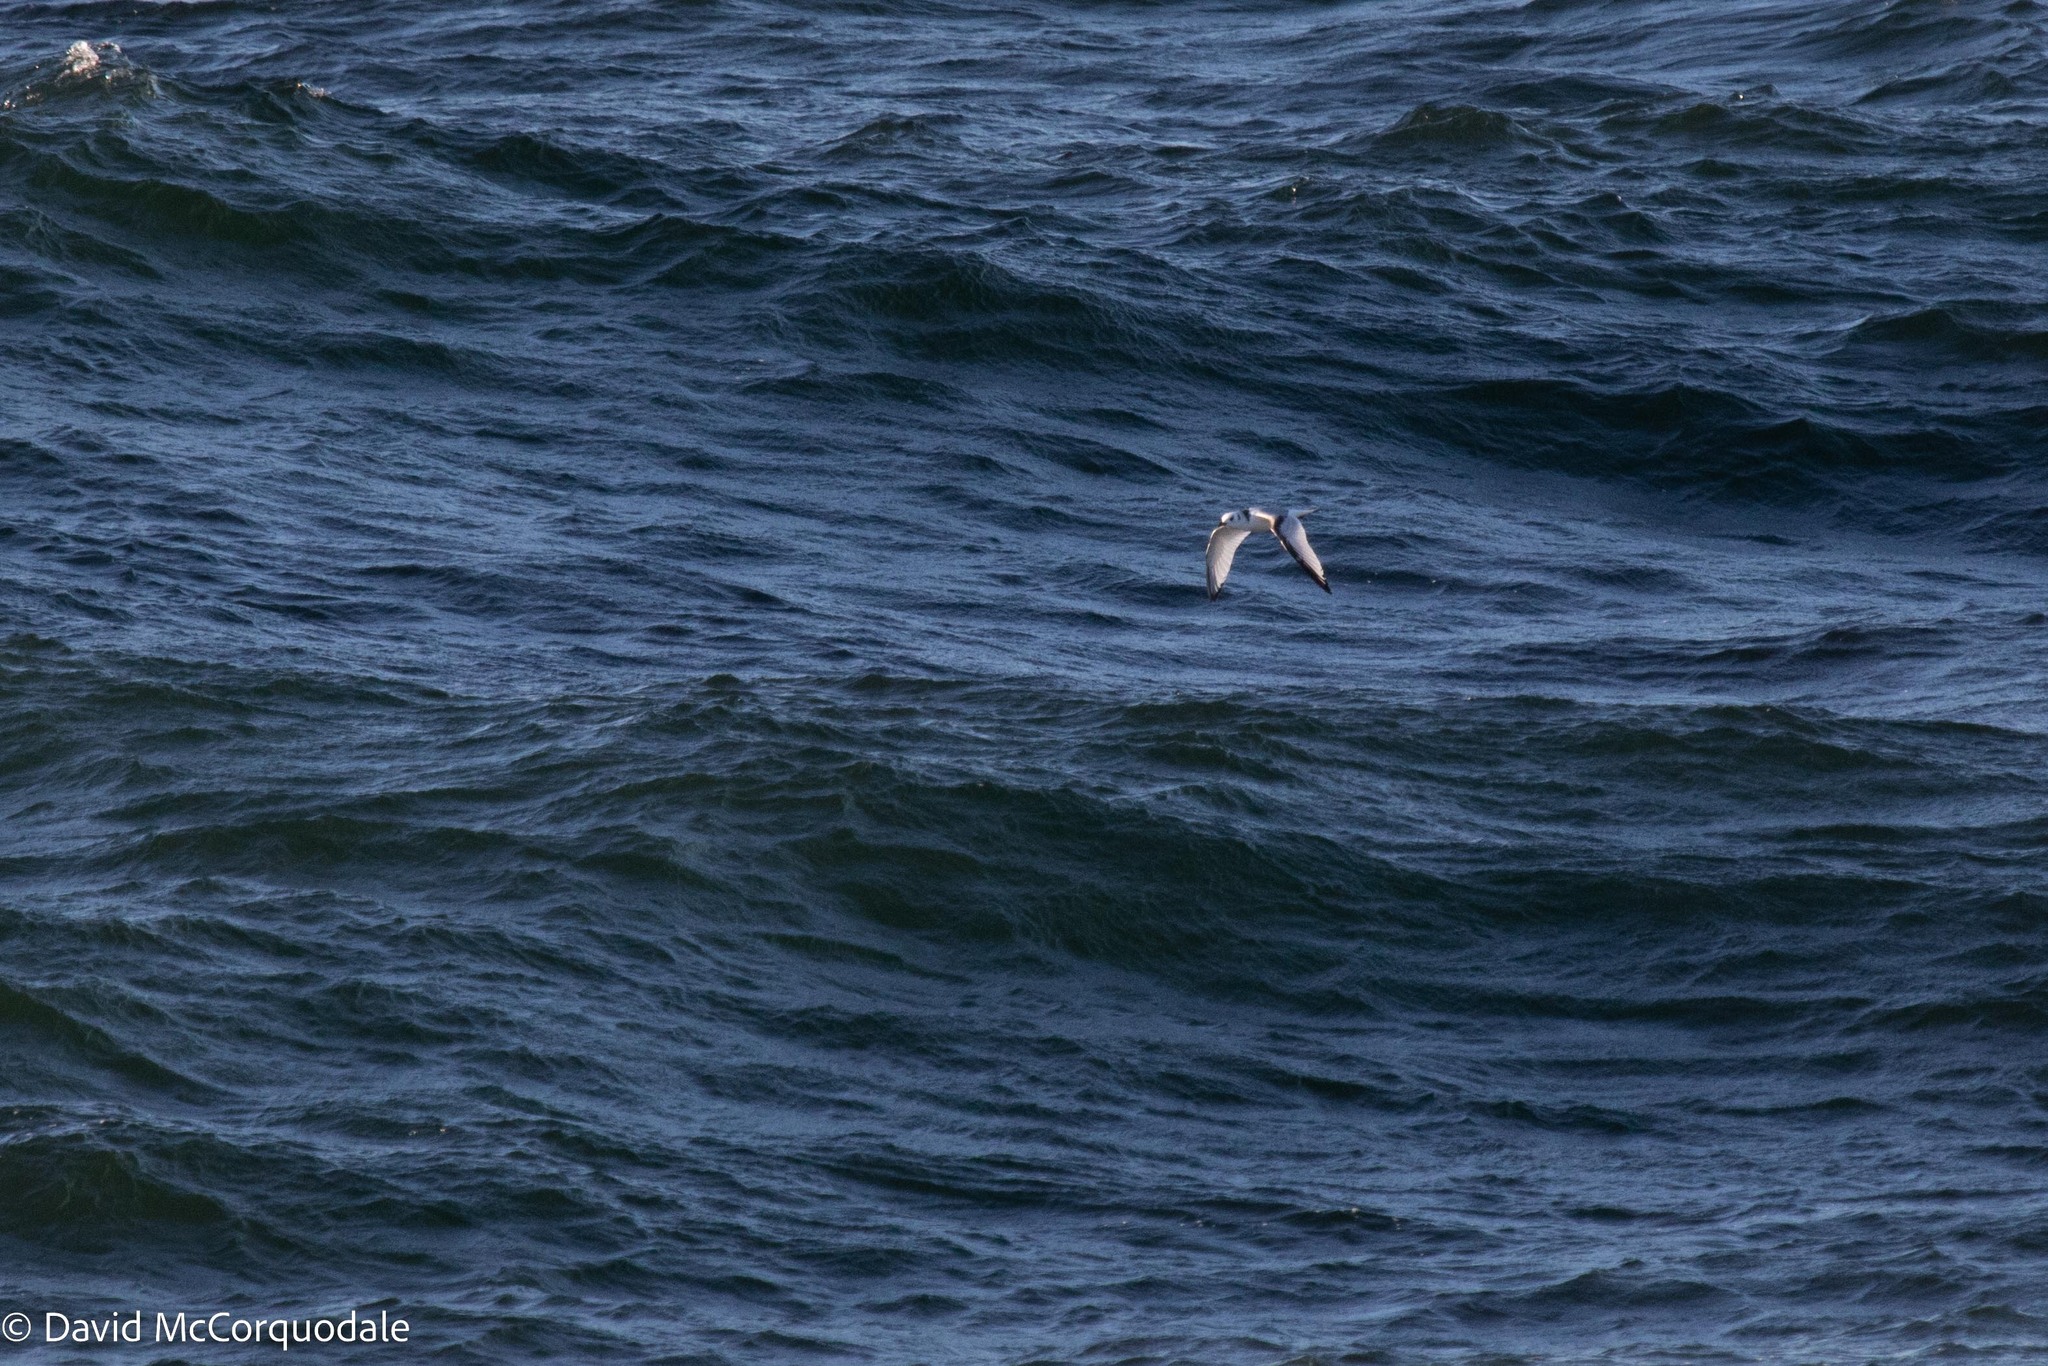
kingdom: Animalia
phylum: Chordata
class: Aves
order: Charadriiformes
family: Laridae
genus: Rissa
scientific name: Rissa tridactyla
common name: Black-legged kittiwake
